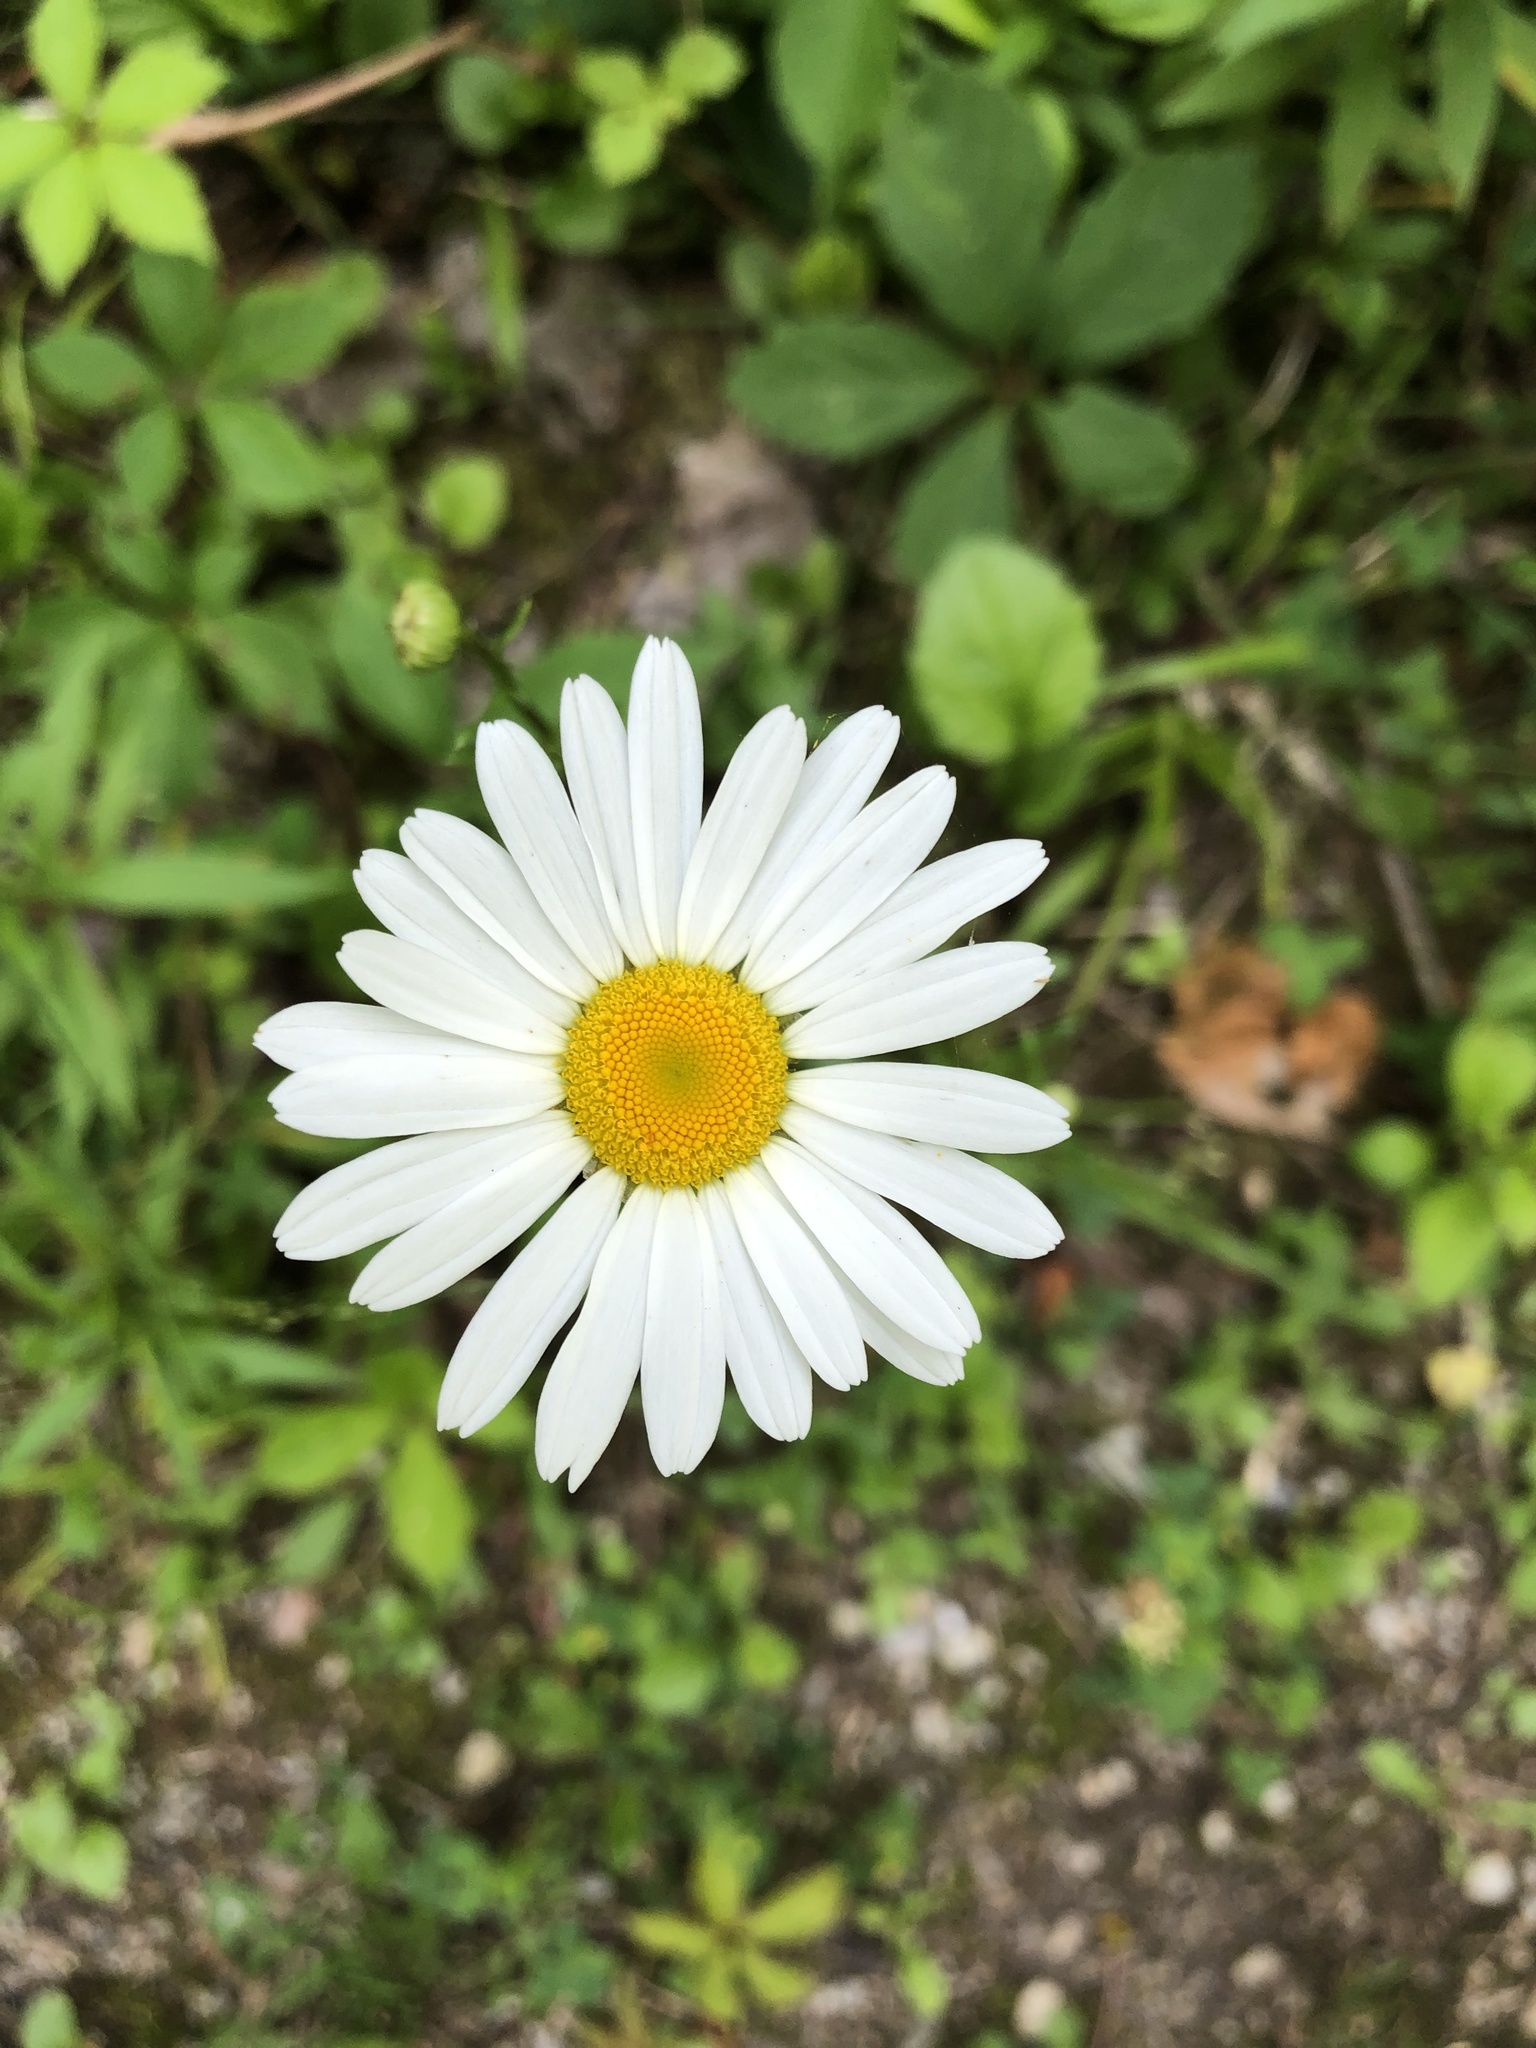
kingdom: Plantae
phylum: Tracheophyta
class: Magnoliopsida
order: Asterales
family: Asteraceae
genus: Leucanthemum
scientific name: Leucanthemum vulgare
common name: Oxeye daisy
